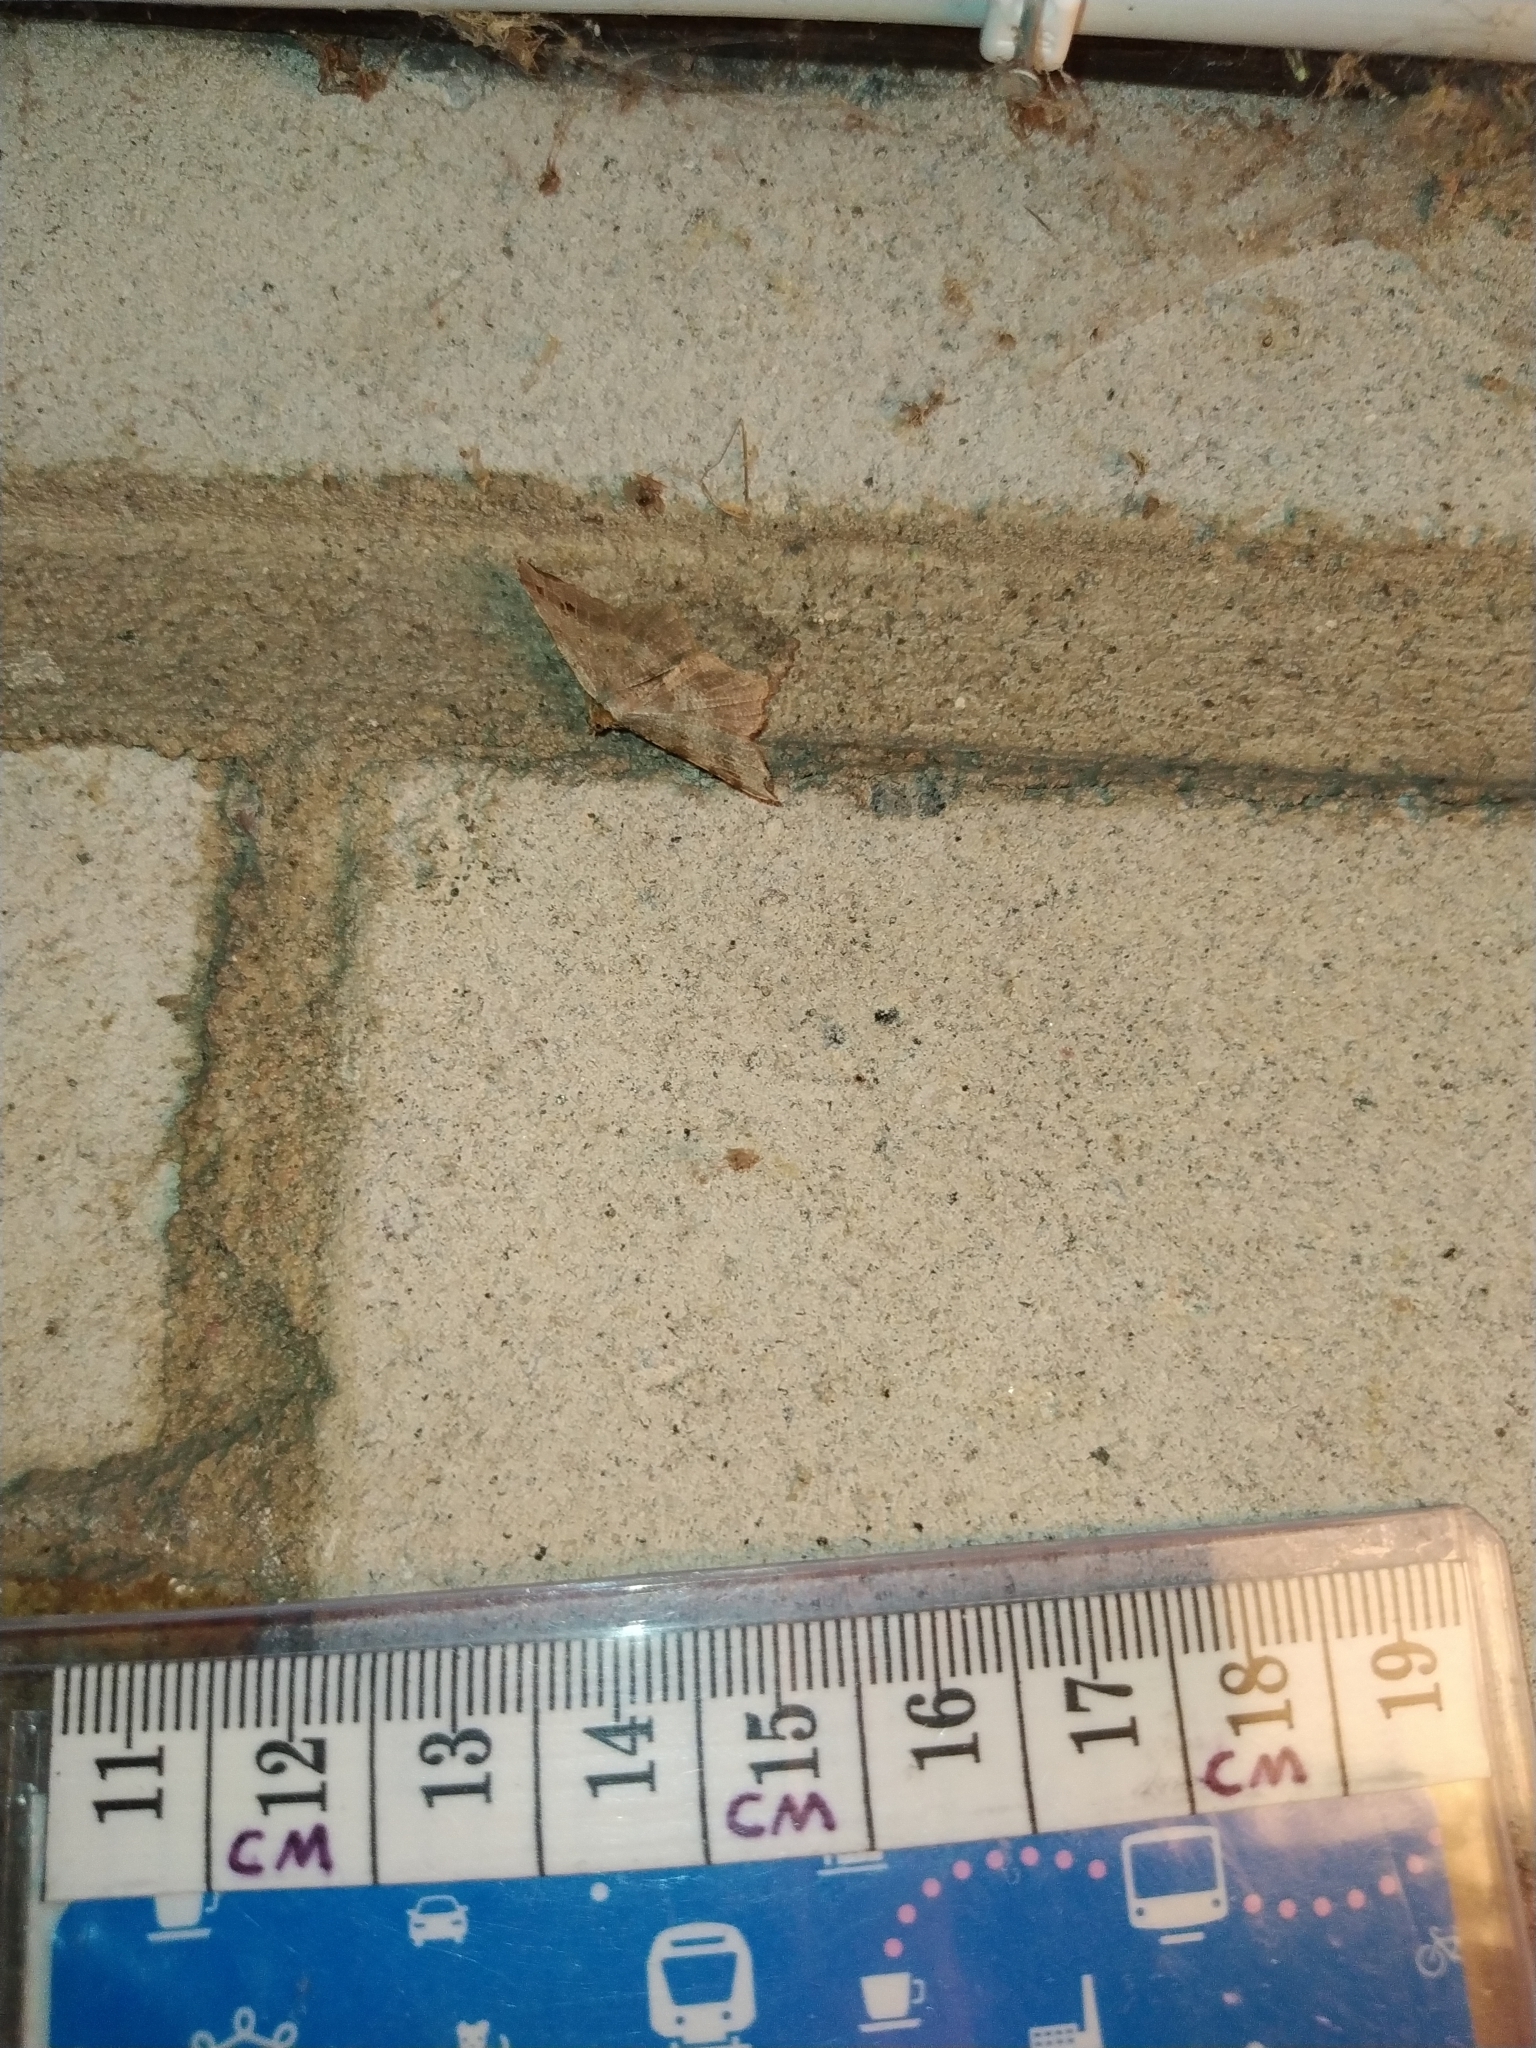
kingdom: Animalia
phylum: Arthropoda
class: Insecta
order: Lepidoptera
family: Geometridae
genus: Macaria
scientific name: Macaria alternata
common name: Sharp-angled peacock
